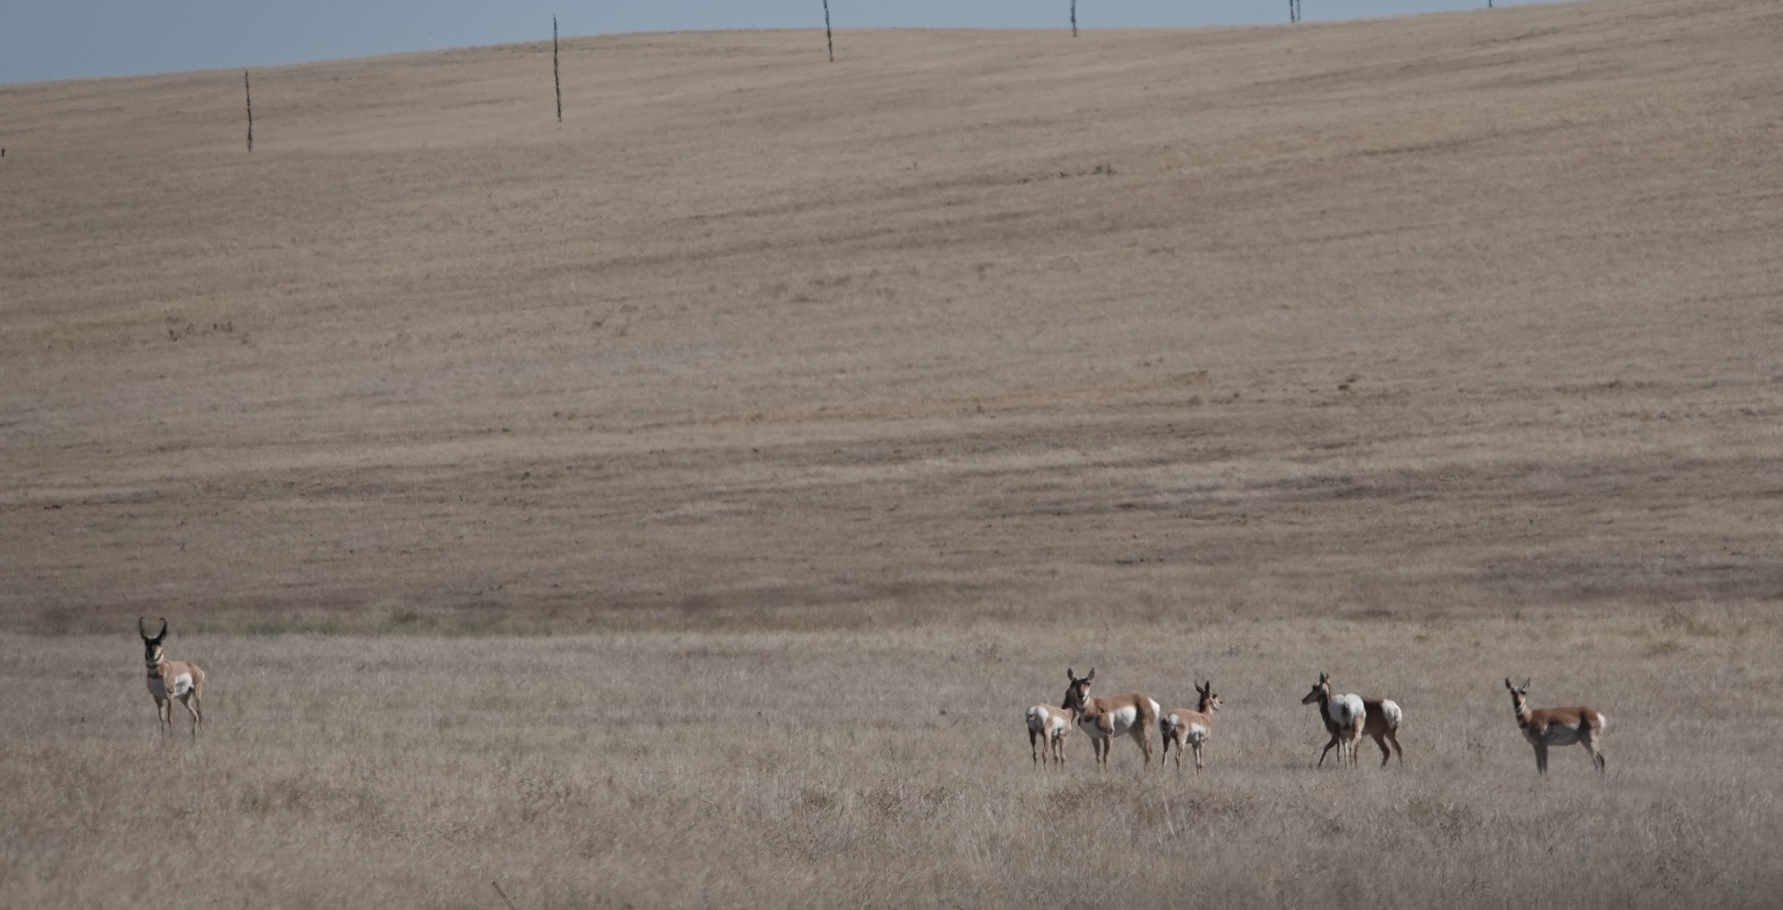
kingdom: Animalia
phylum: Chordata
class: Mammalia
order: Artiodactyla
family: Antilocapridae
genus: Antilocapra
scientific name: Antilocapra americana
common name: Pronghorn
